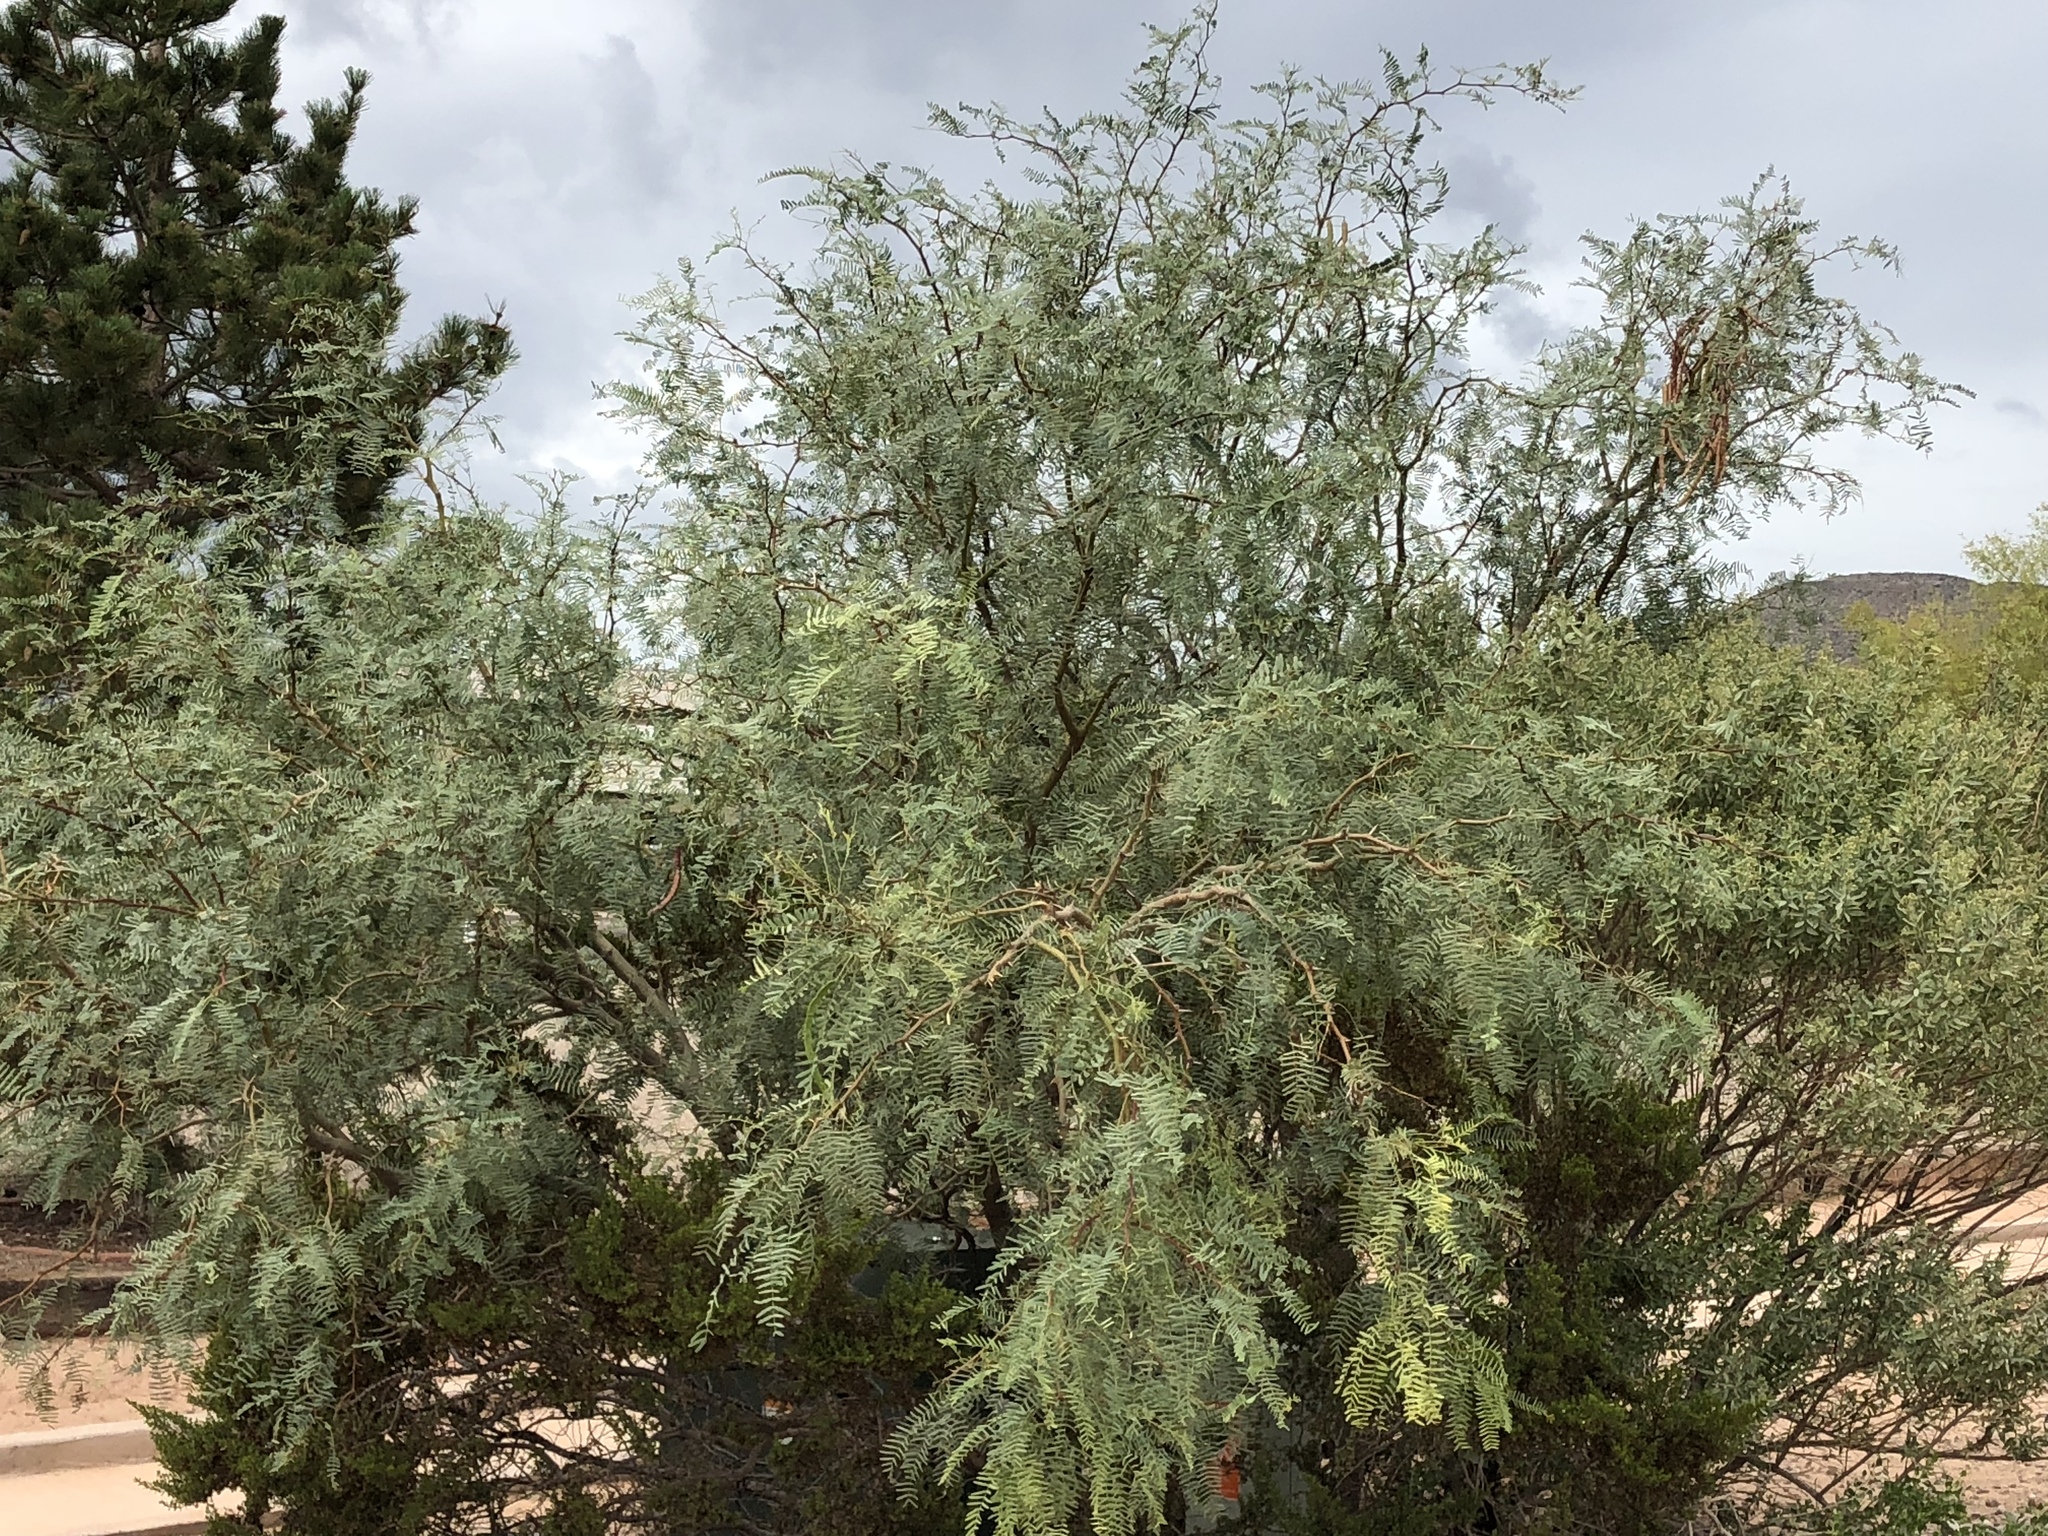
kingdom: Plantae
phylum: Tracheophyta
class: Magnoliopsida
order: Fabales
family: Fabaceae
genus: Prosopis
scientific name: Prosopis glandulosa
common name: Honey mesquite
